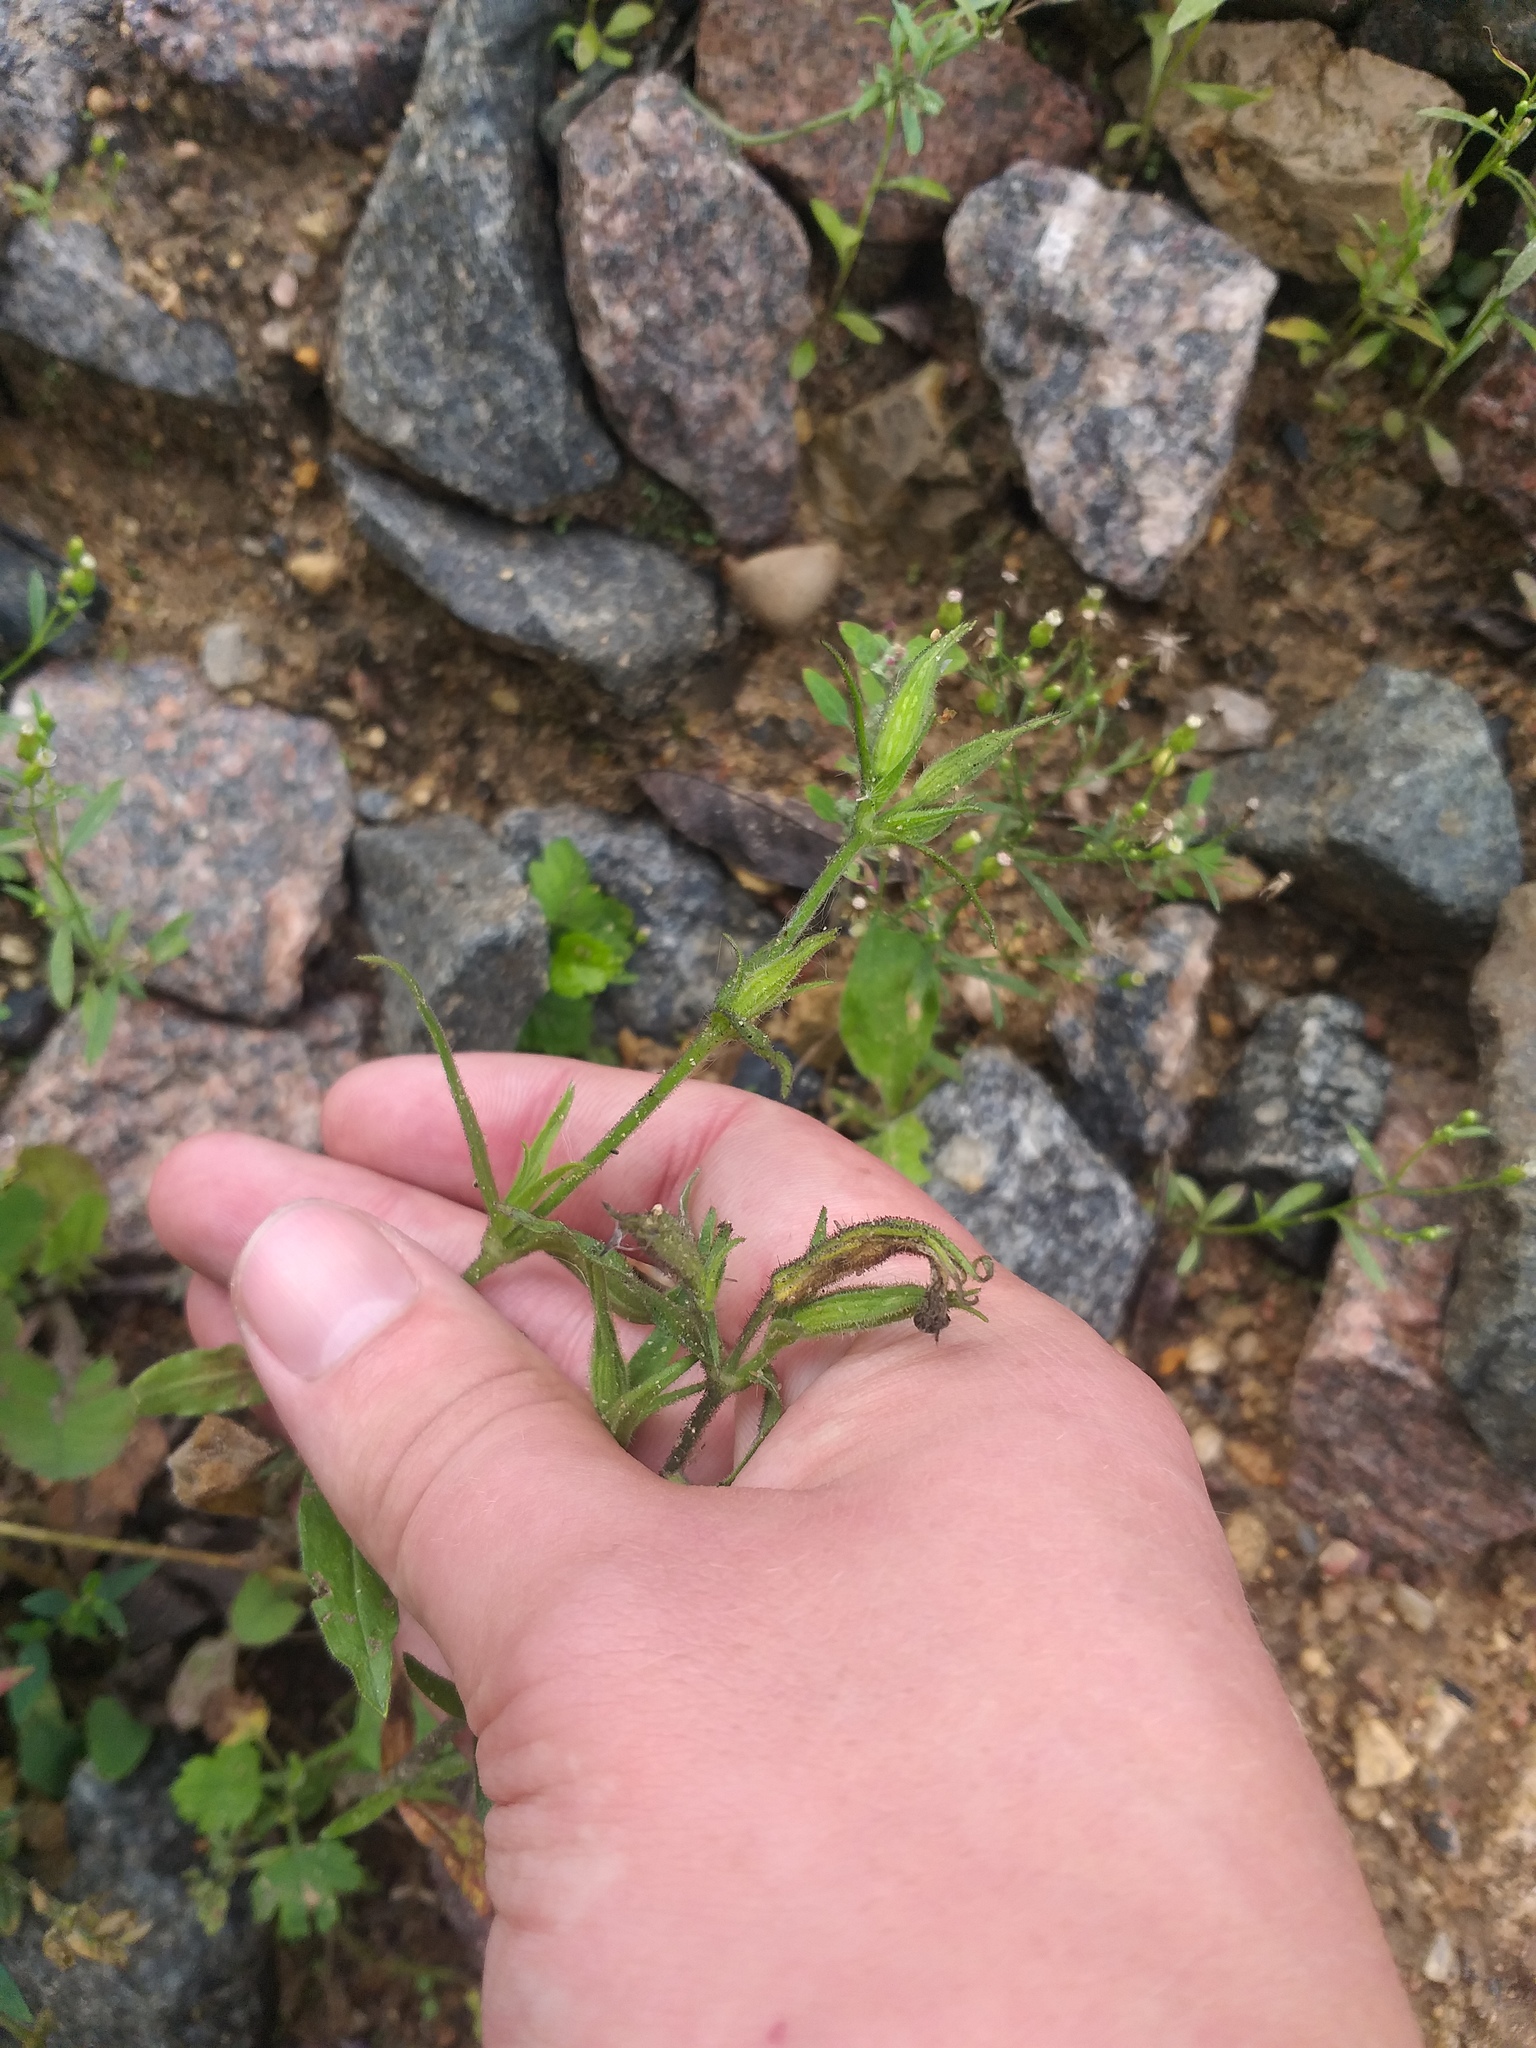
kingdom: Plantae
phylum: Tracheophyta
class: Magnoliopsida
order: Caryophyllales
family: Caryophyllaceae
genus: Silene
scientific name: Silene noctiflora
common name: Night-flowering catchfly
